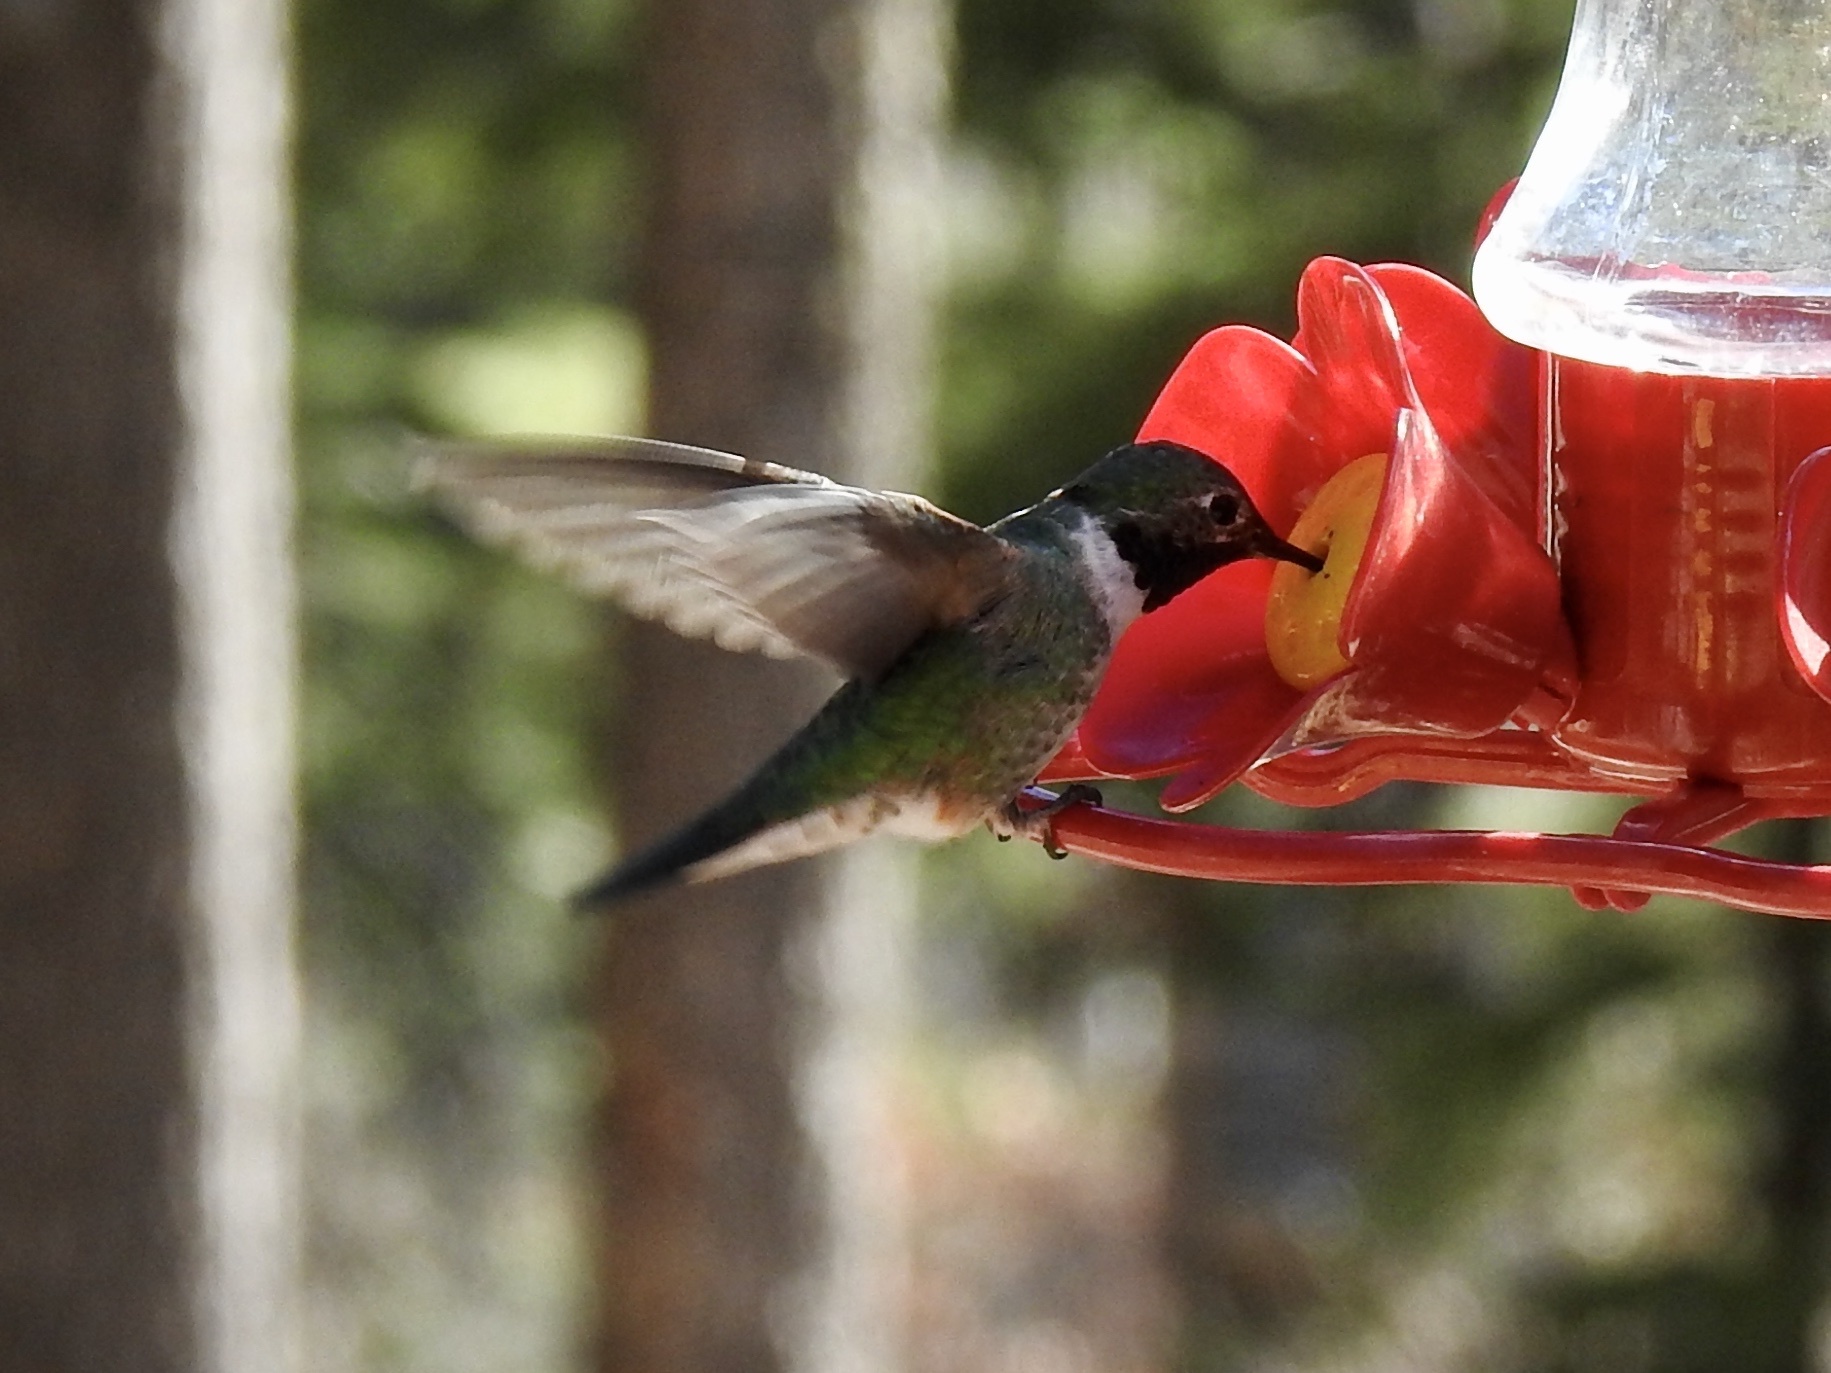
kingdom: Animalia
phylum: Chordata
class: Aves
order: Apodiformes
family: Trochilidae
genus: Selasphorus
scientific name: Selasphorus platycercus
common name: Broad-tailed hummingbird
